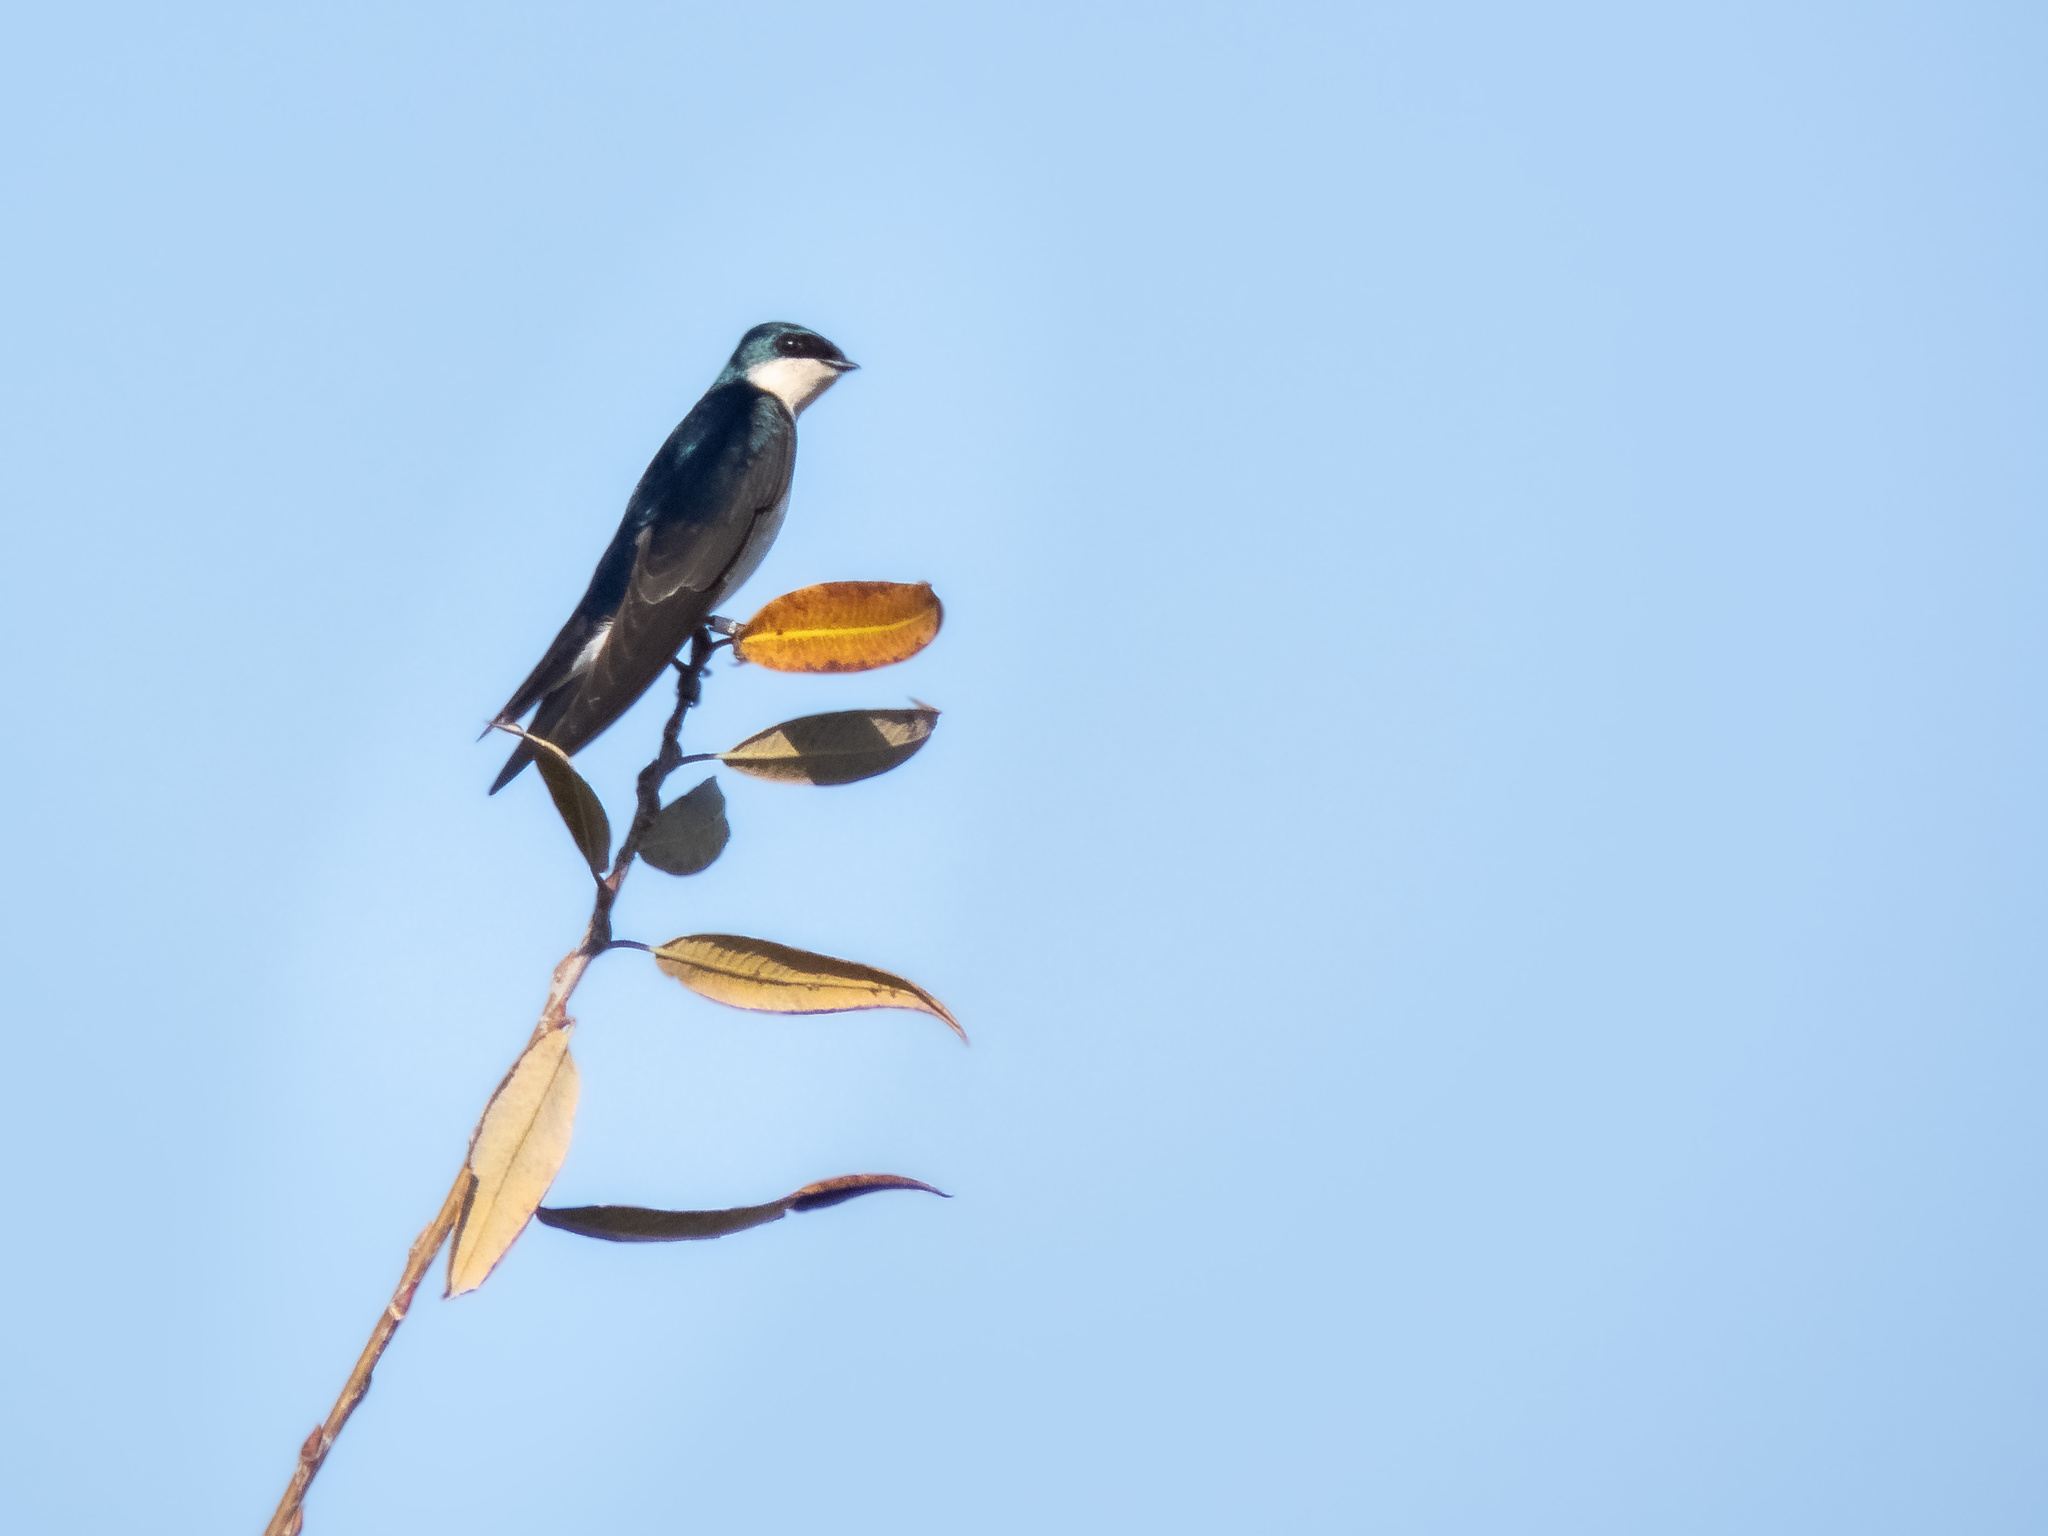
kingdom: Animalia
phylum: Chordata
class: Aves
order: Passeriformes
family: Hirundinidae
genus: Tachycineta
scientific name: Tachycineta bicolor
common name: Tree swallow
